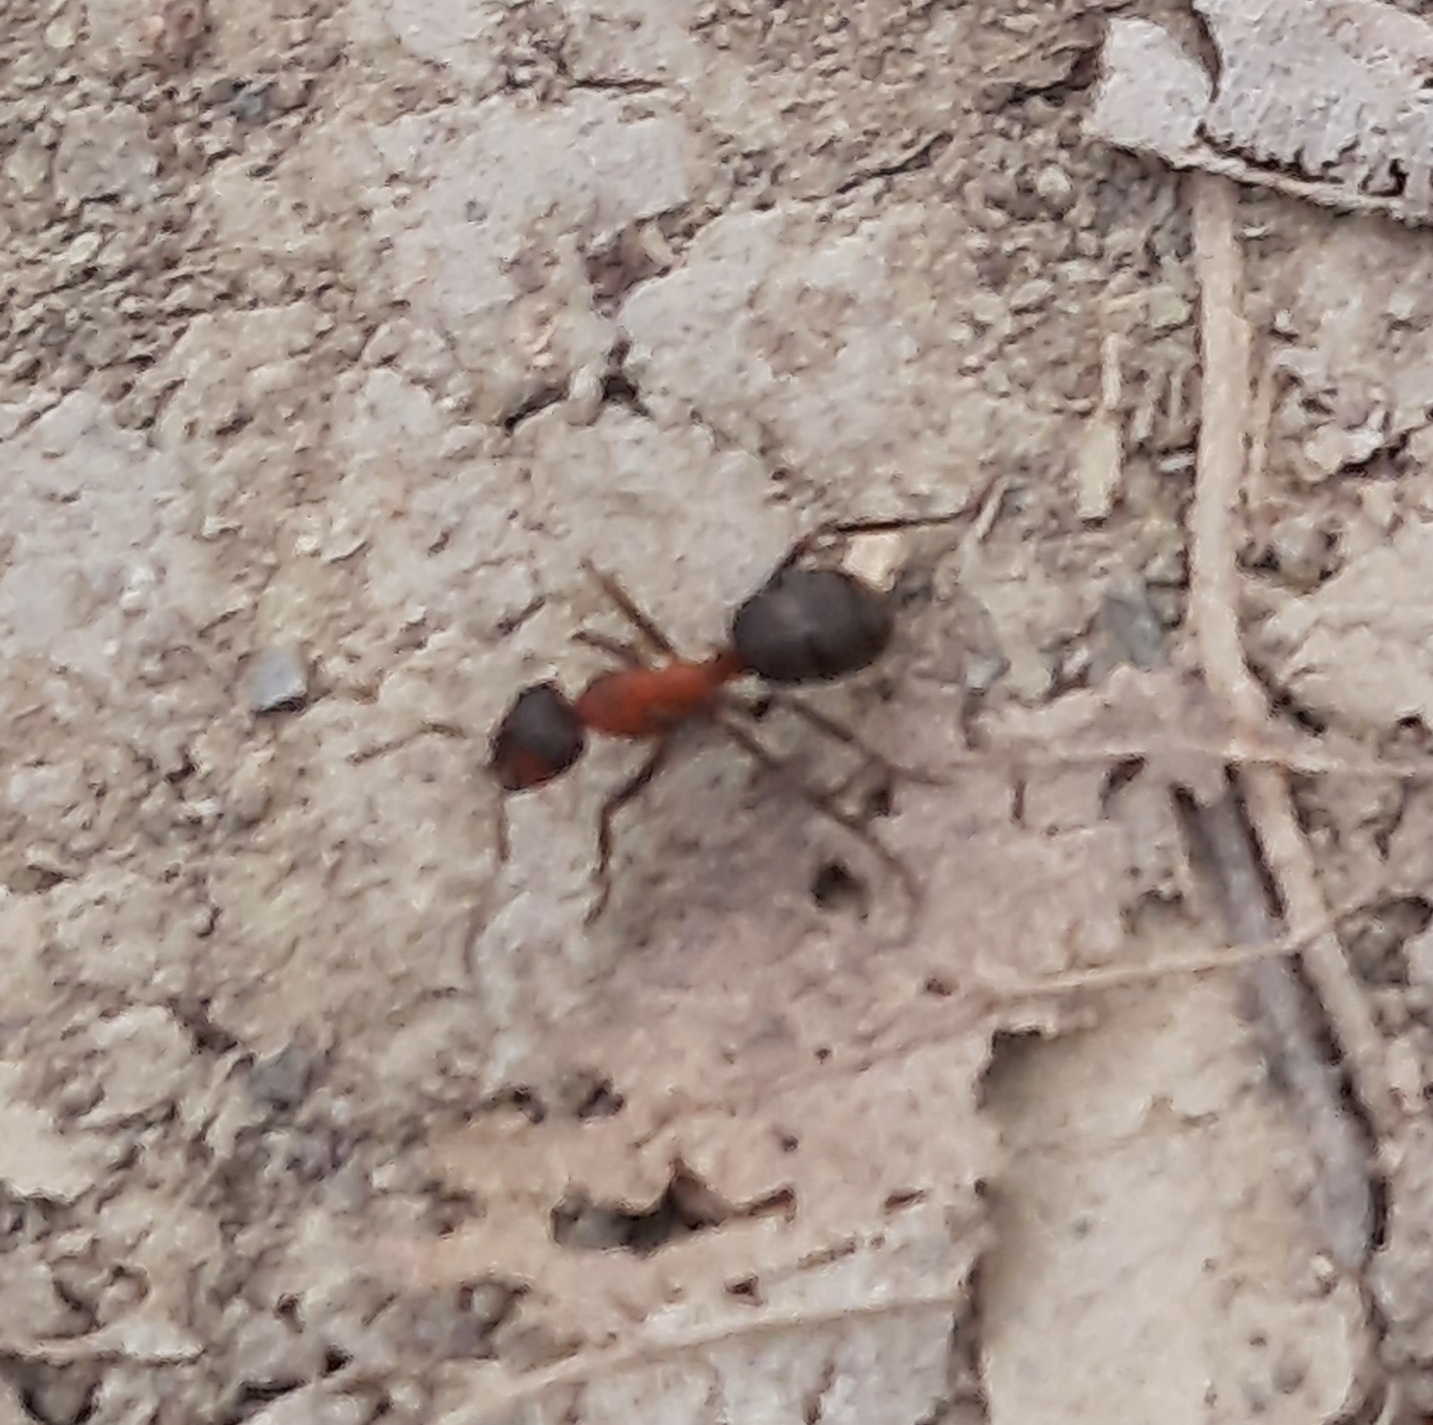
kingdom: Animalia
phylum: Arthropoda
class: Insecta
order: Hymenoptera
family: Formicidae
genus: Formica
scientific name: Formica
